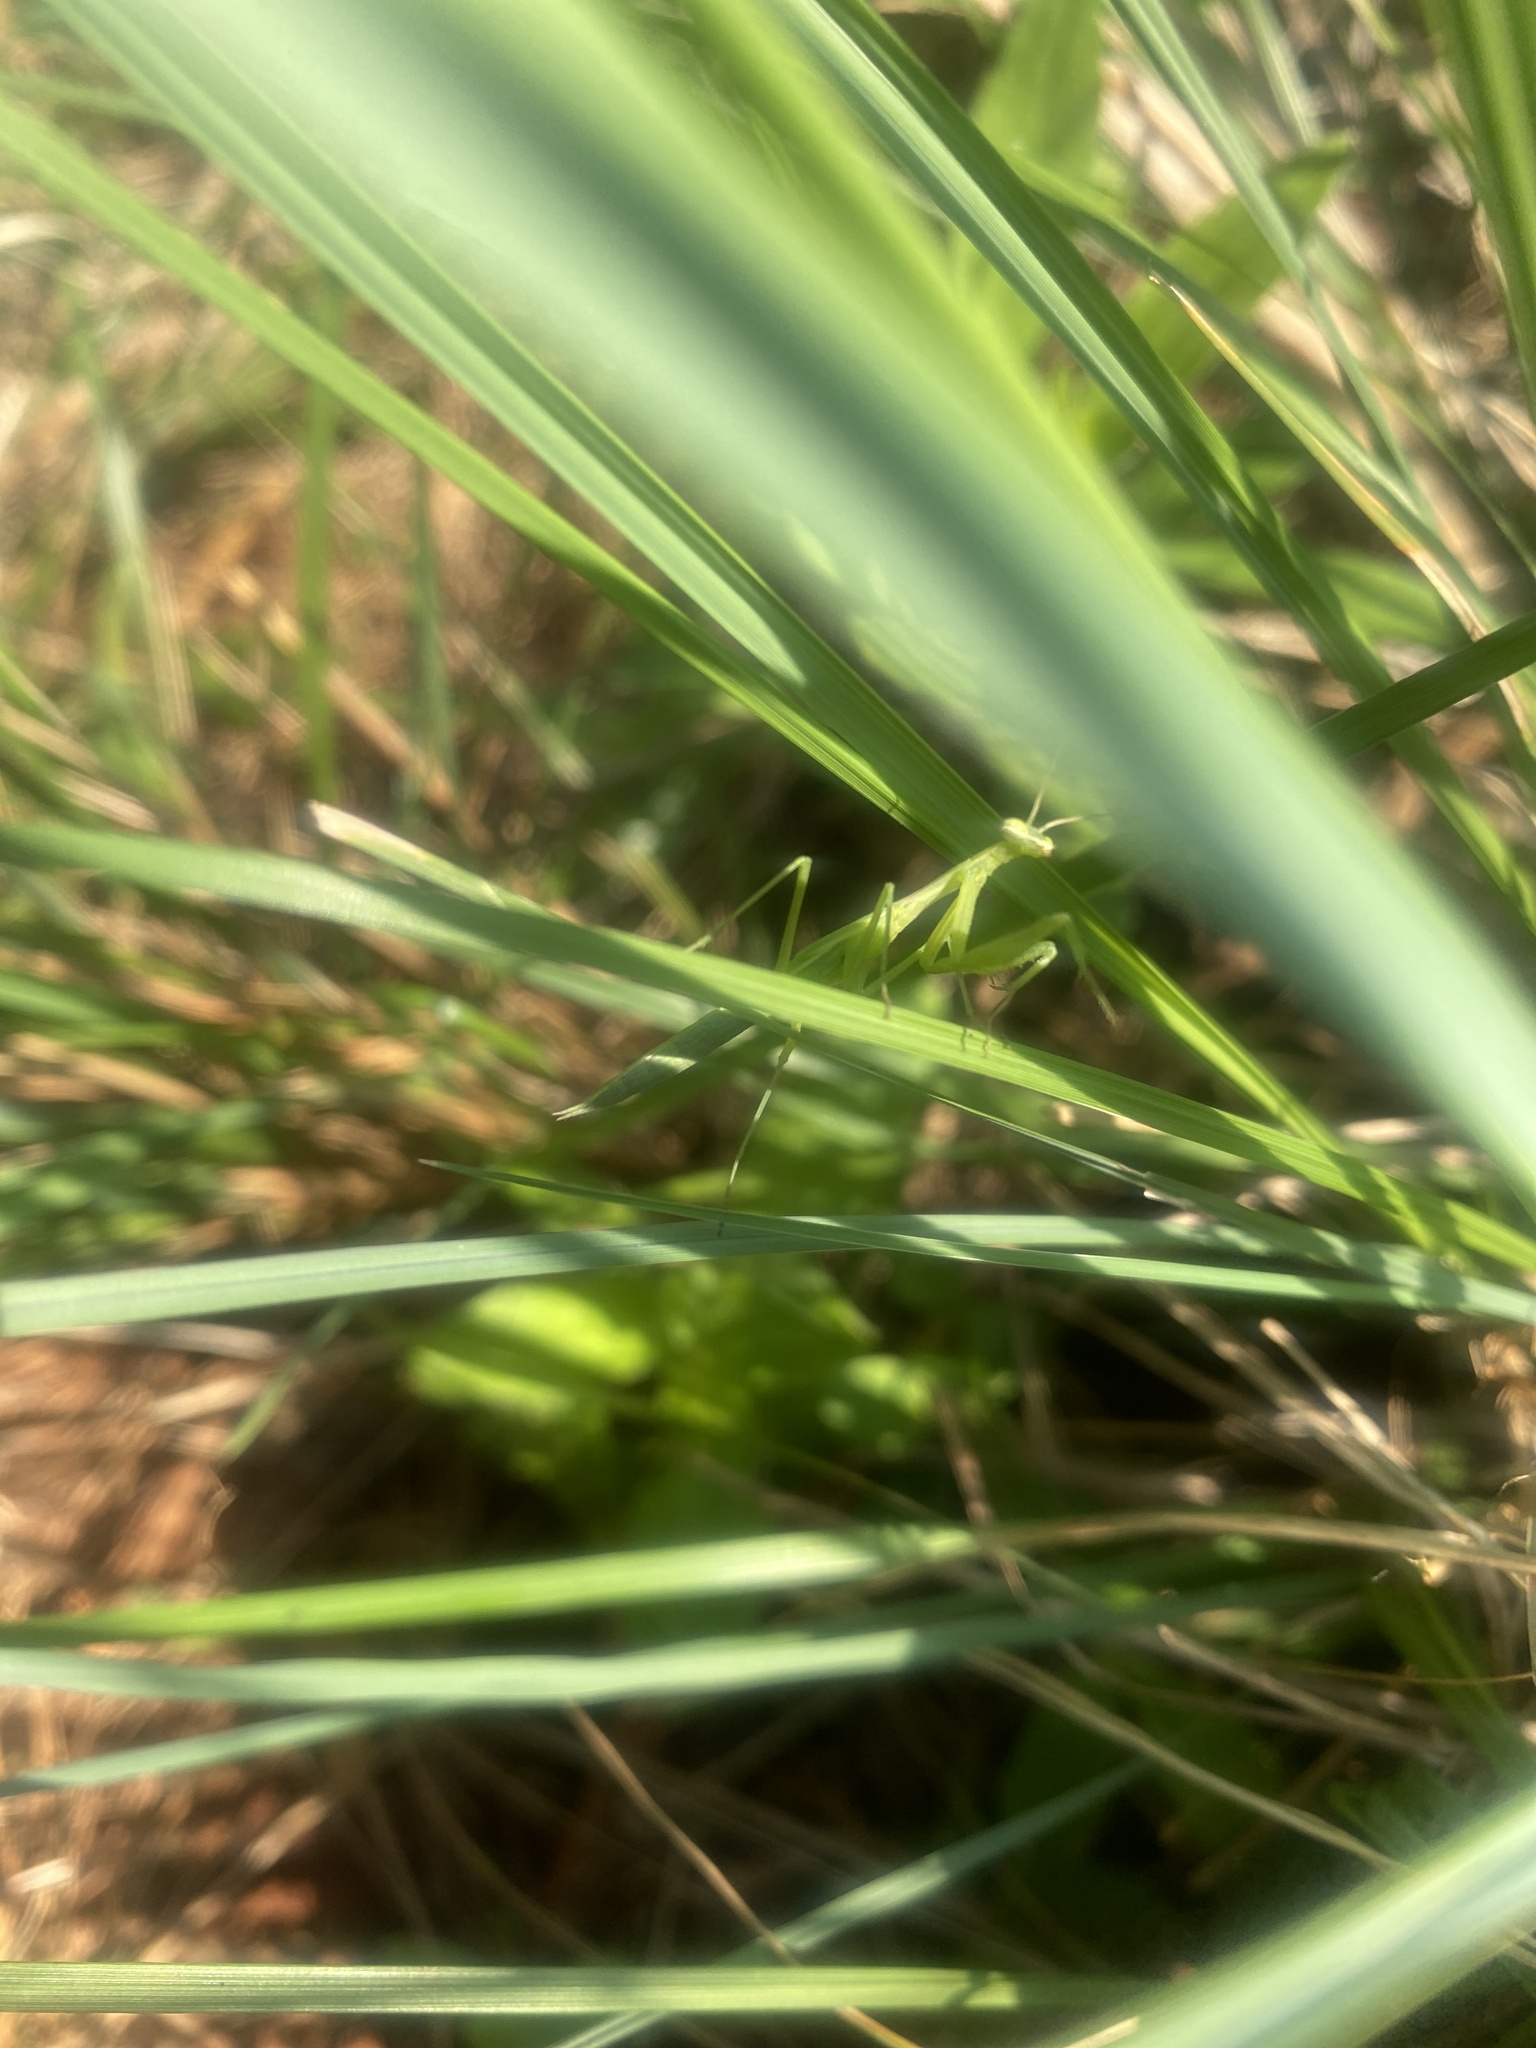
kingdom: Animalia
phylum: Arthropoda
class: Insecta
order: Mantodea
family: Mantidae
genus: Mantis
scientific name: Mantis religiosa
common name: Praying mantis
